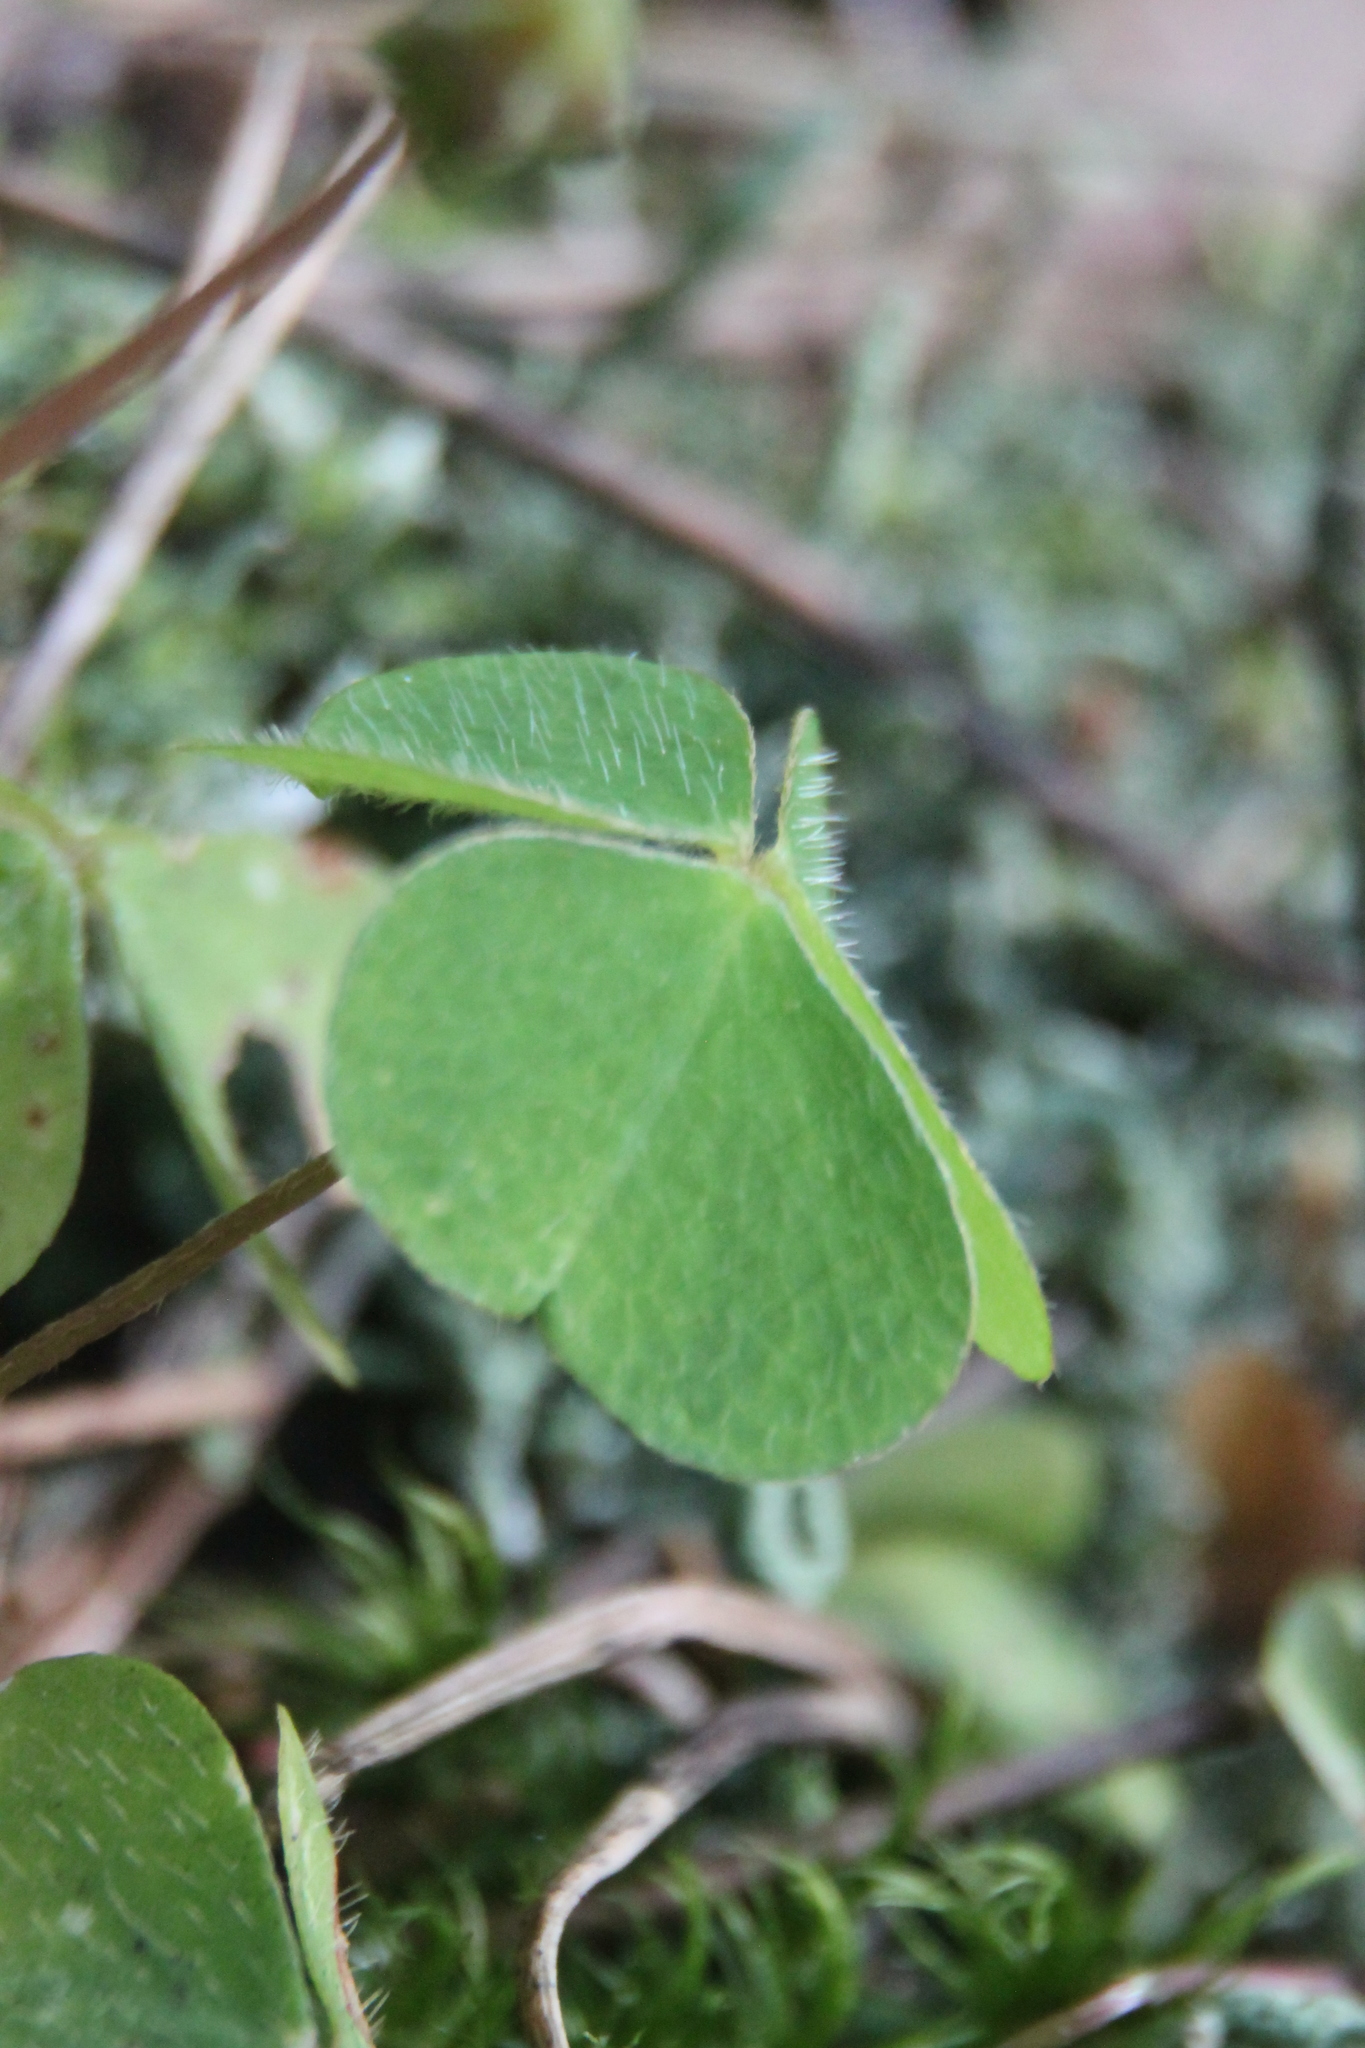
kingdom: Plantae
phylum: Tracheophyta
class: Magnoliopsida
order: Oxalidales
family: Oxalidaceae
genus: Oxalis
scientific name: Oxalis acetosella
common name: Wood-sorrel
